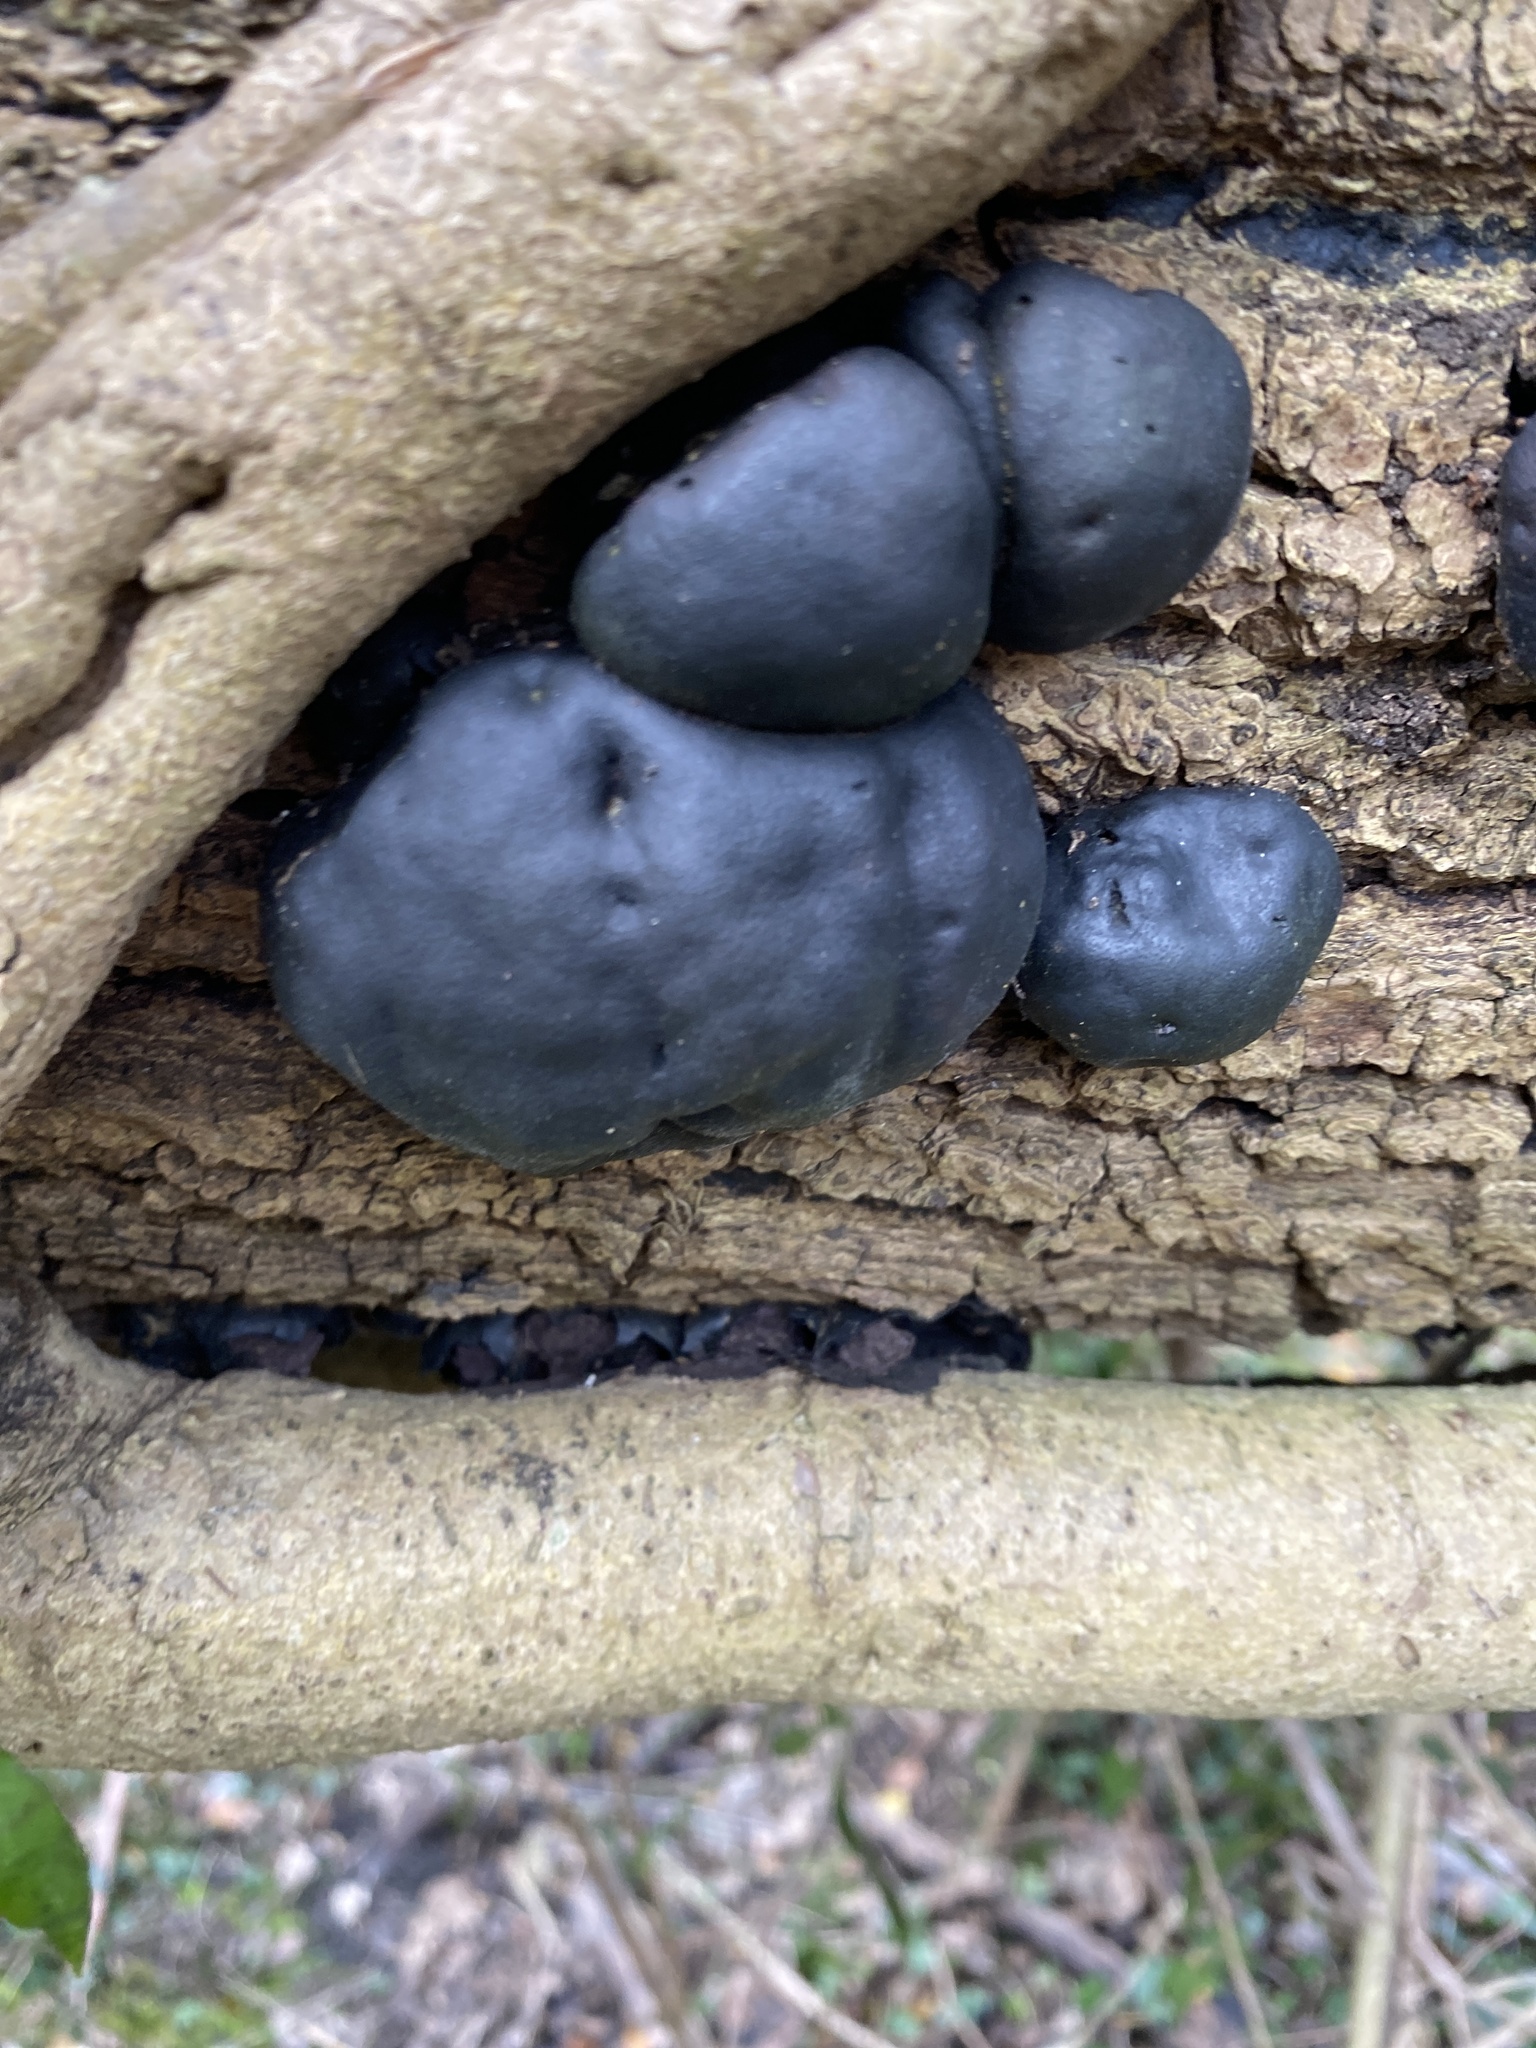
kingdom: Fungi
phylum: Ascomycota
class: Sordariomycetes
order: Xylariales
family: Hypoxylaceae
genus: Daldinia
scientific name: Daldinia concentrica
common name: Cramp balls
